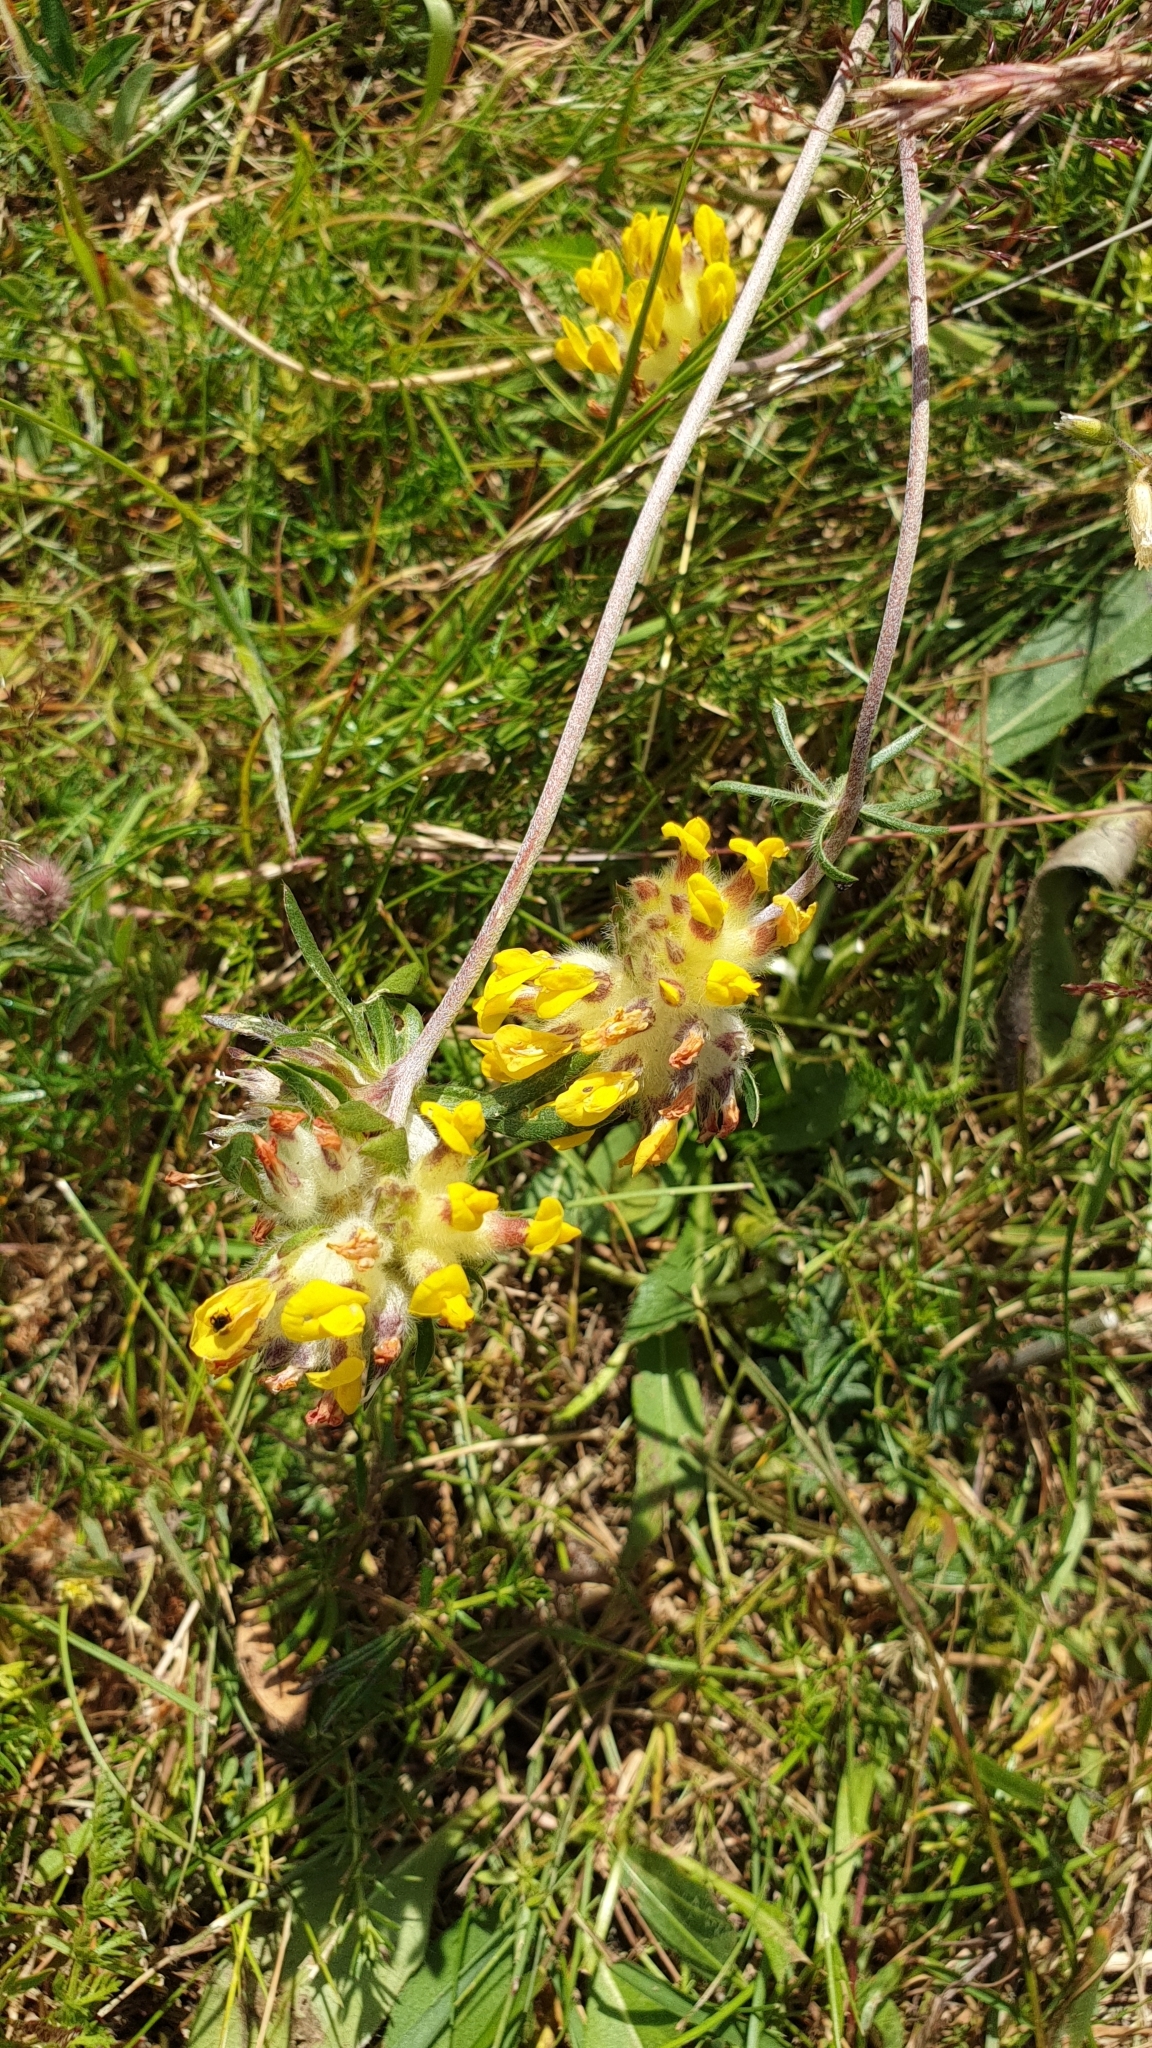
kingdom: Plantae
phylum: Tracheophyta
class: Magnoliopsida
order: Fabales
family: Fabaceae
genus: Anthyllis
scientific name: Anthyllis vulneraria
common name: Kidney vetch
